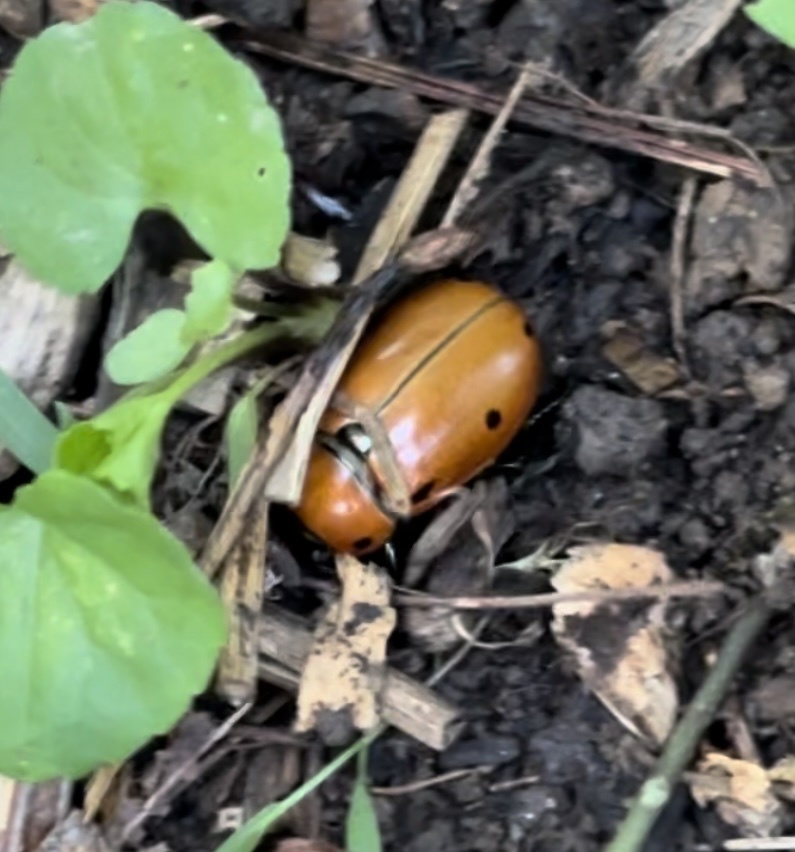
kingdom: Animalia
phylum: Arthropoda
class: Insecta
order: Coleoptera
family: Scarabaeidae
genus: Pelidnota
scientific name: Pelidnota punctata
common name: Grapevine beetle
